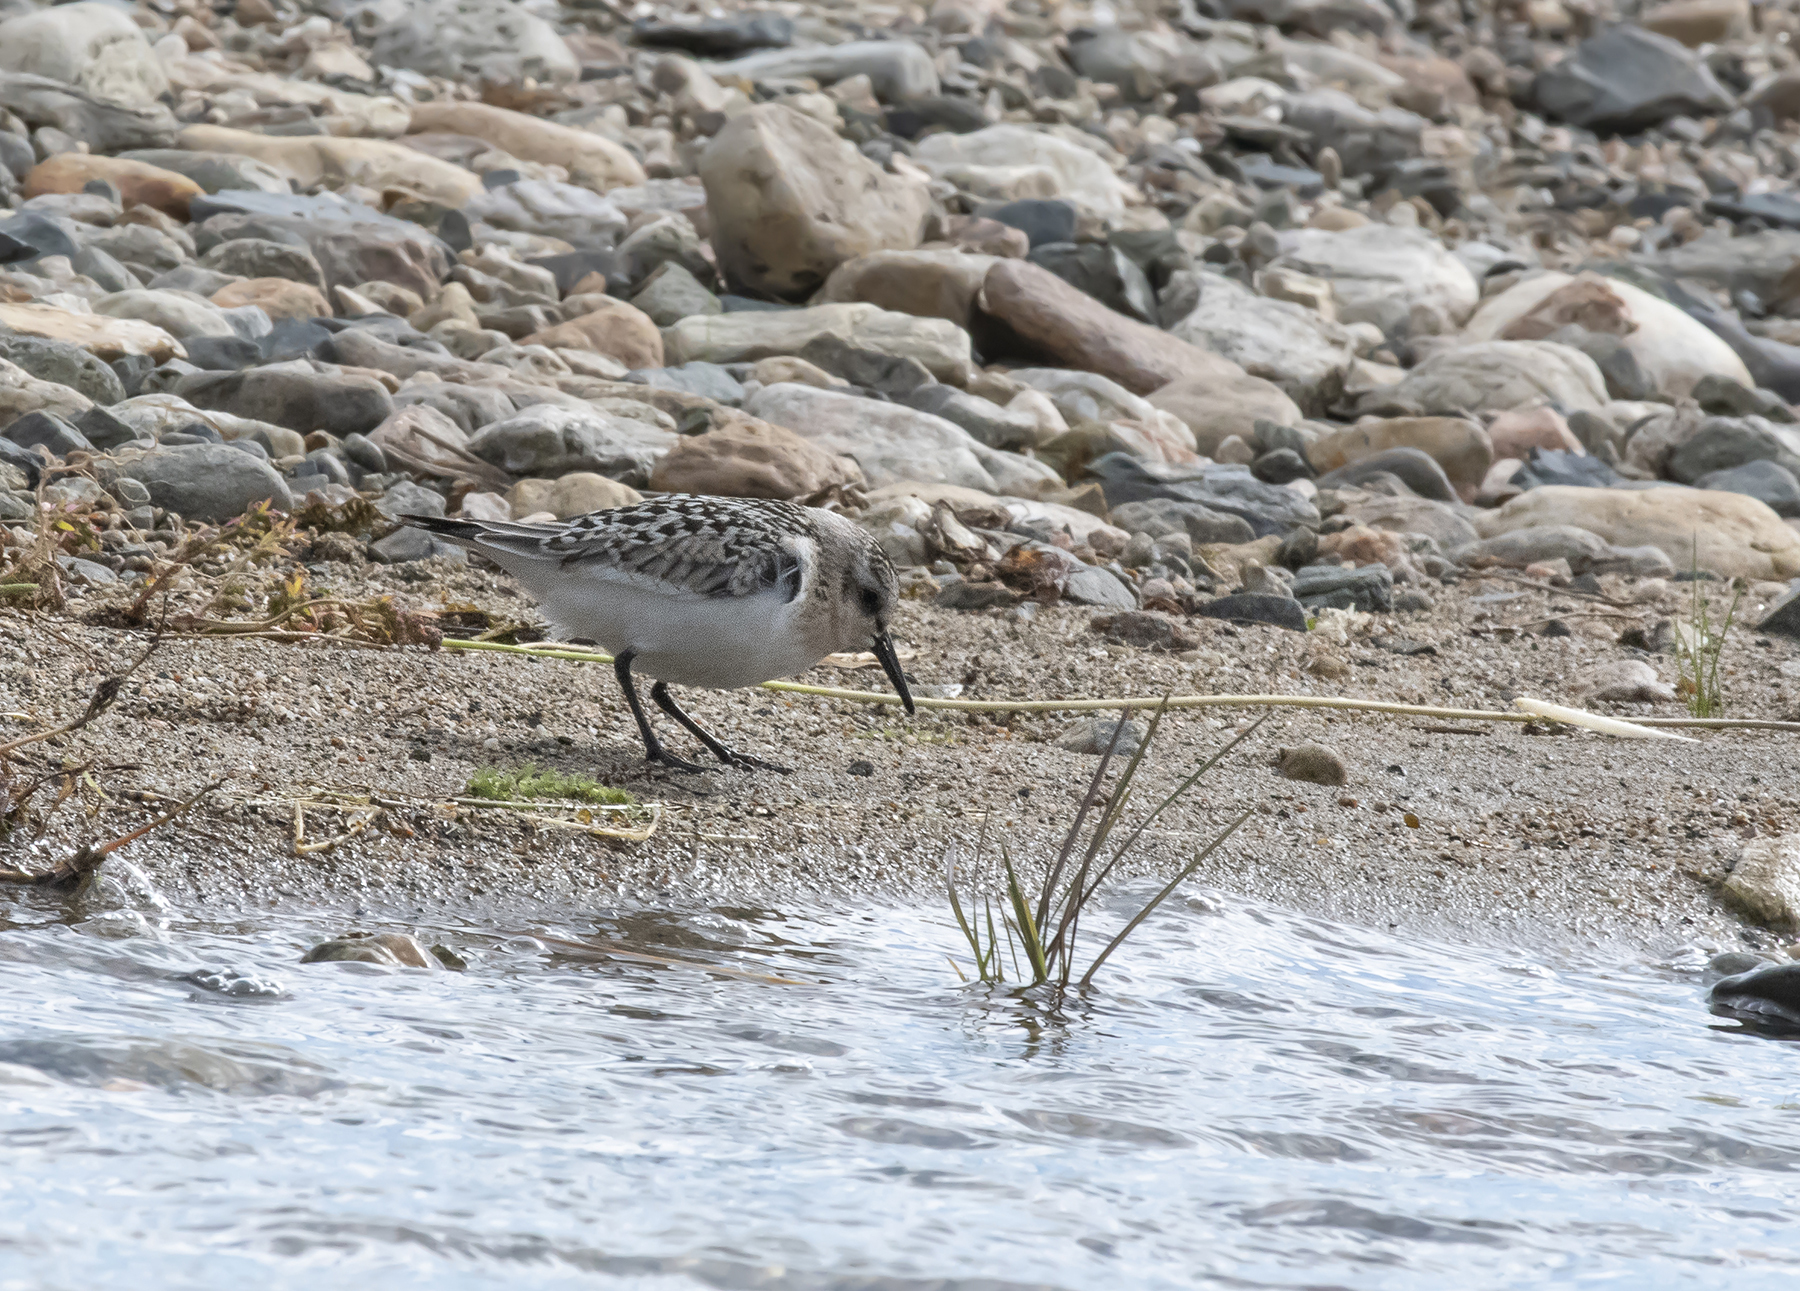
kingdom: Animalia
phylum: Chordata
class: Aves
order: Charadriiformes
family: Scolopacidae
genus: Calidris
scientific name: Calidris alba
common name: Sanderling
